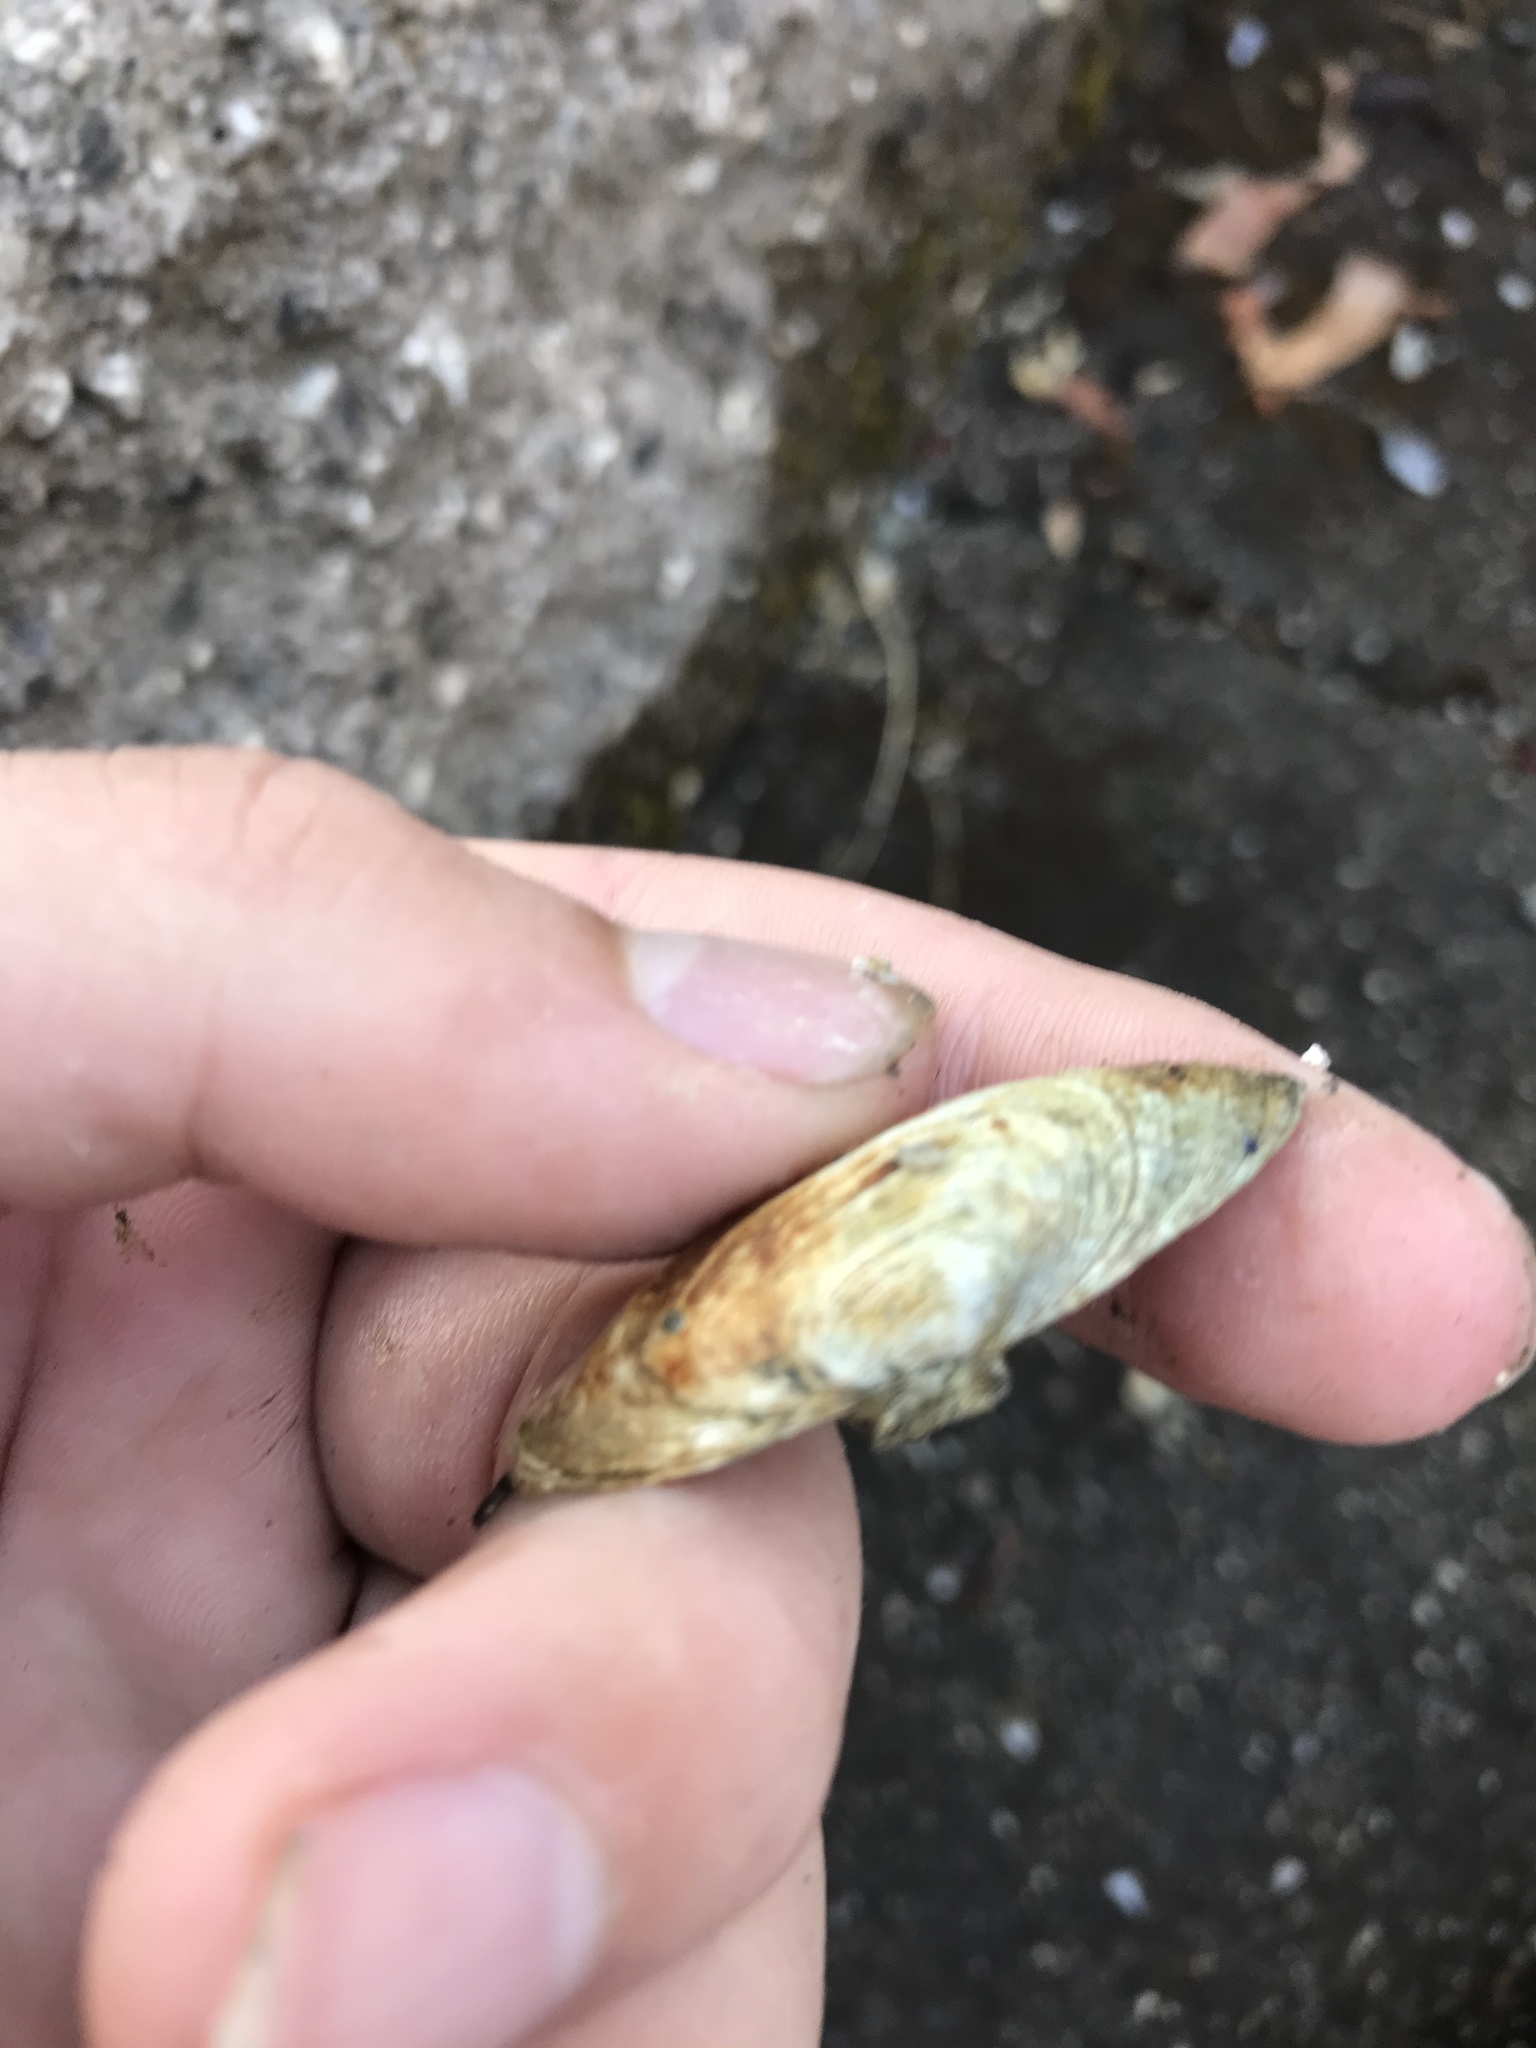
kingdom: Animalia
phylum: Mollusca
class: Bivalvia
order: Myida
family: Myidae
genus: Mya
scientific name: Mya arenaria
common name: Soft-shelled clam
